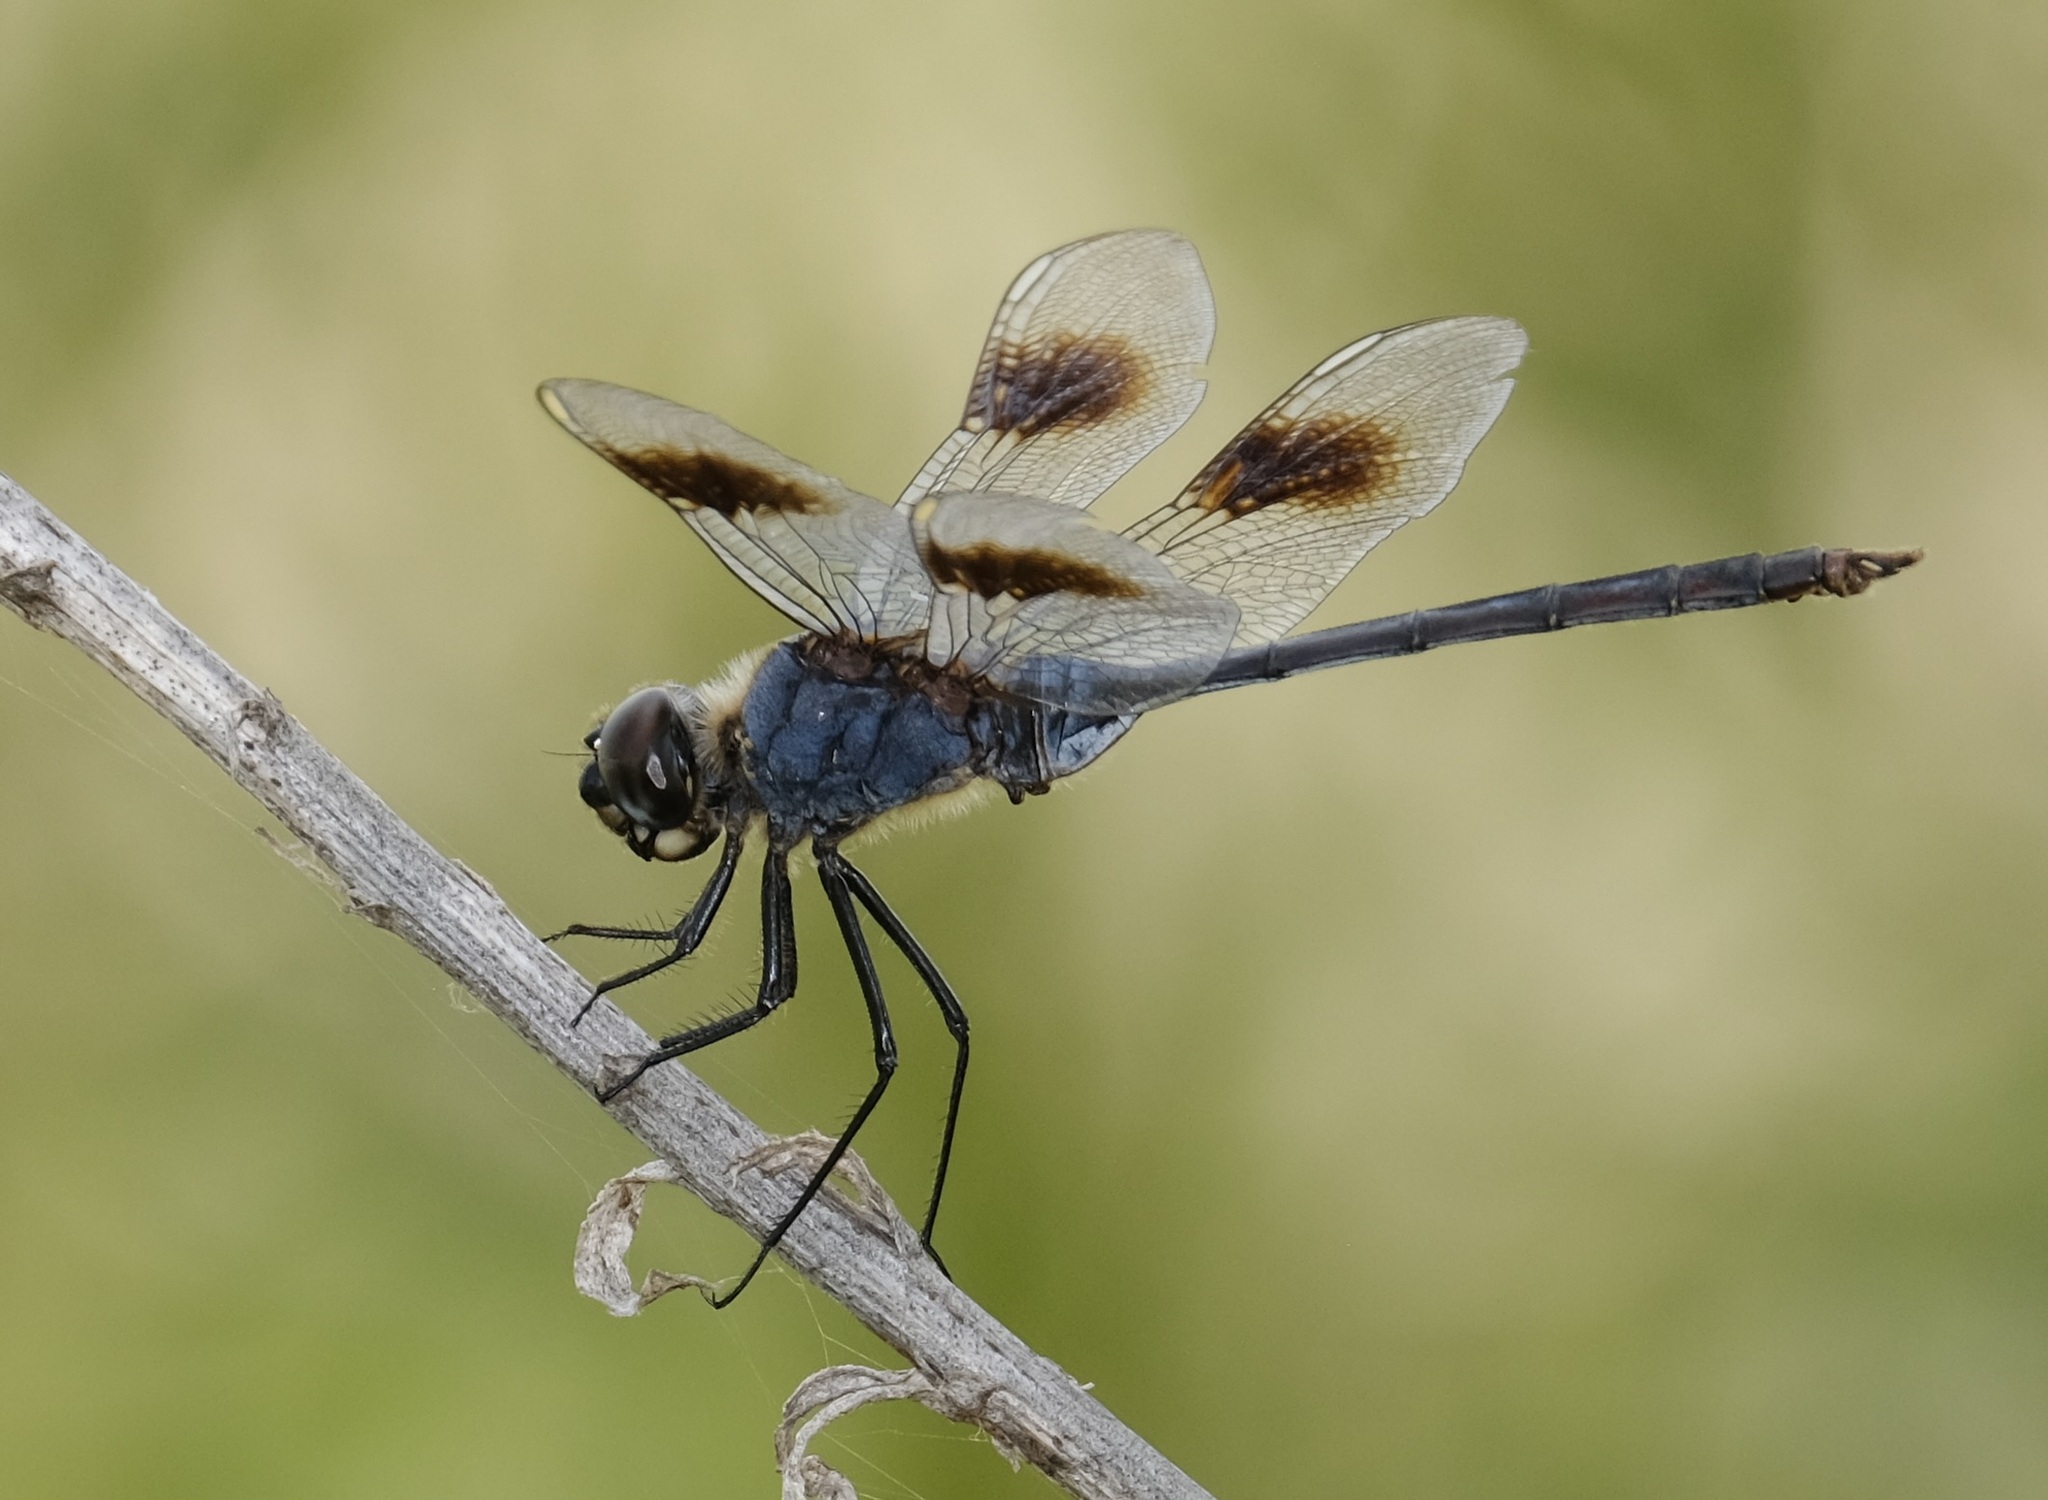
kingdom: Animalia
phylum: Arthropoda
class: Insecta
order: Odonata
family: Libellulidae
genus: Brachymesia
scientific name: Brachymesia gravida
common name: Four-spotted pennant
